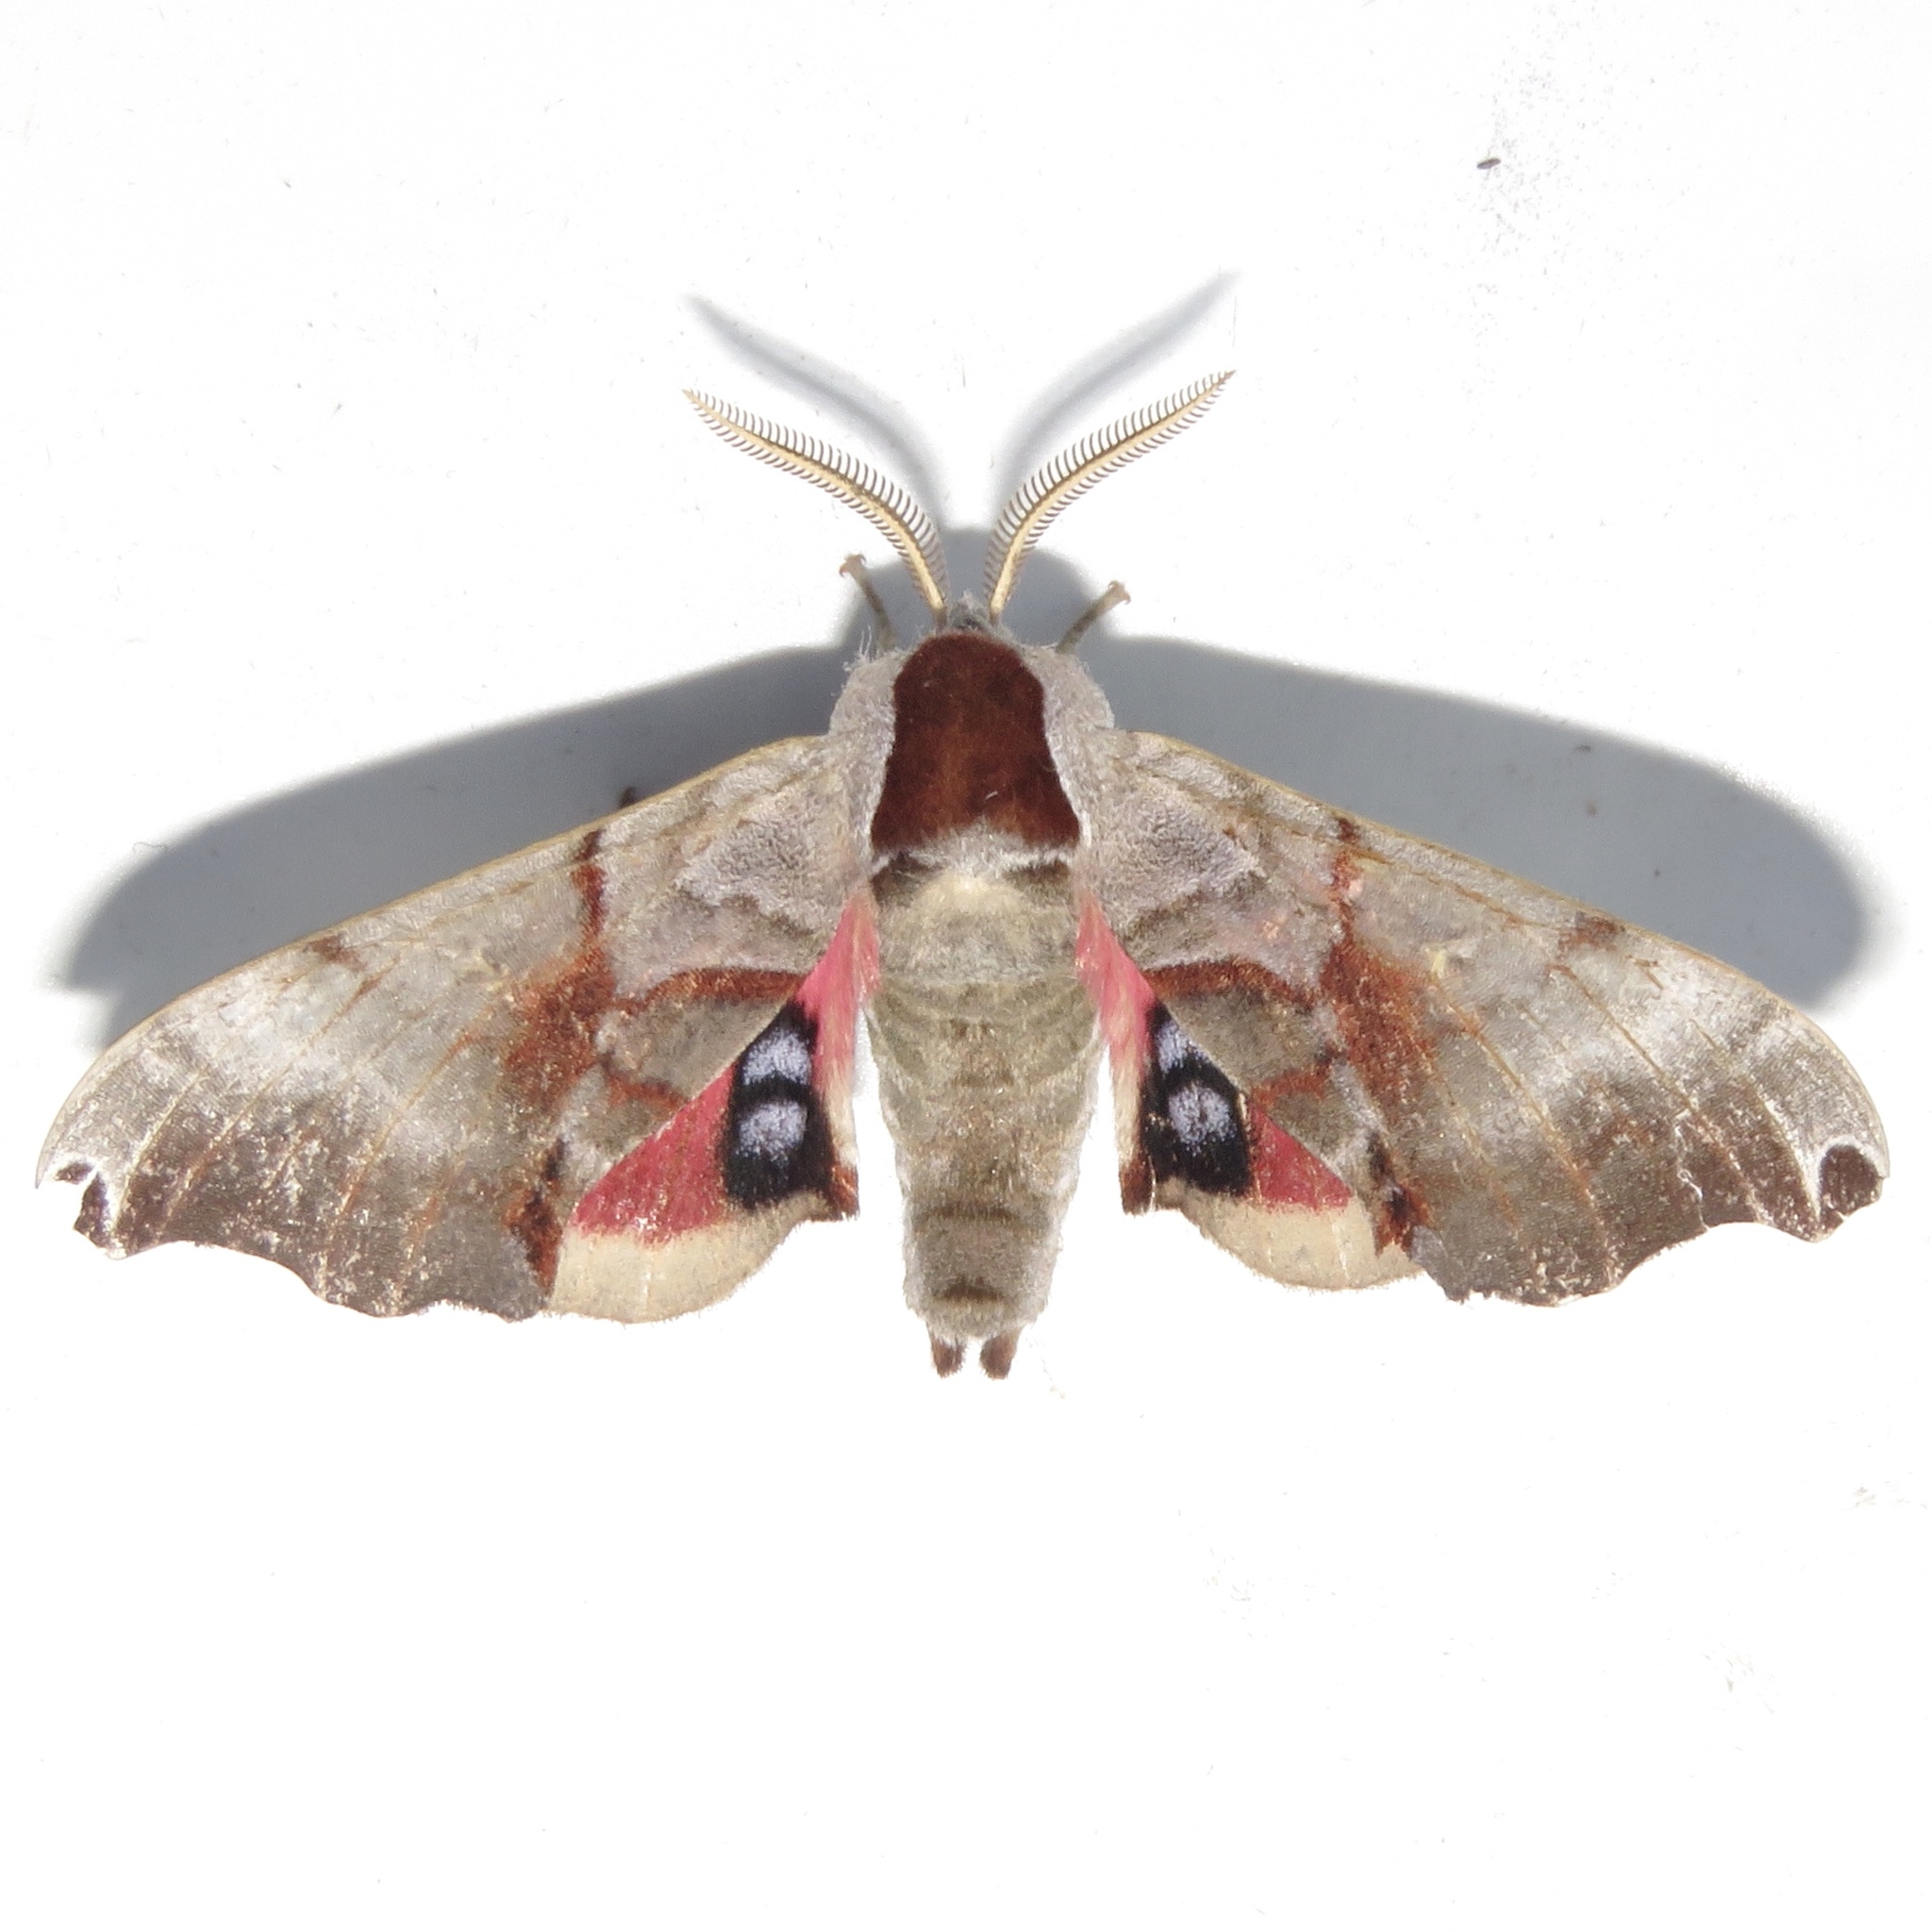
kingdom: Animalia
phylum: Arthropoda
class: Insecta
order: Lepidoptera
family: Sphingidae
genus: Smerinthus
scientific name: Smerinthus jamaicensis
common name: Twin spotted sphinx
